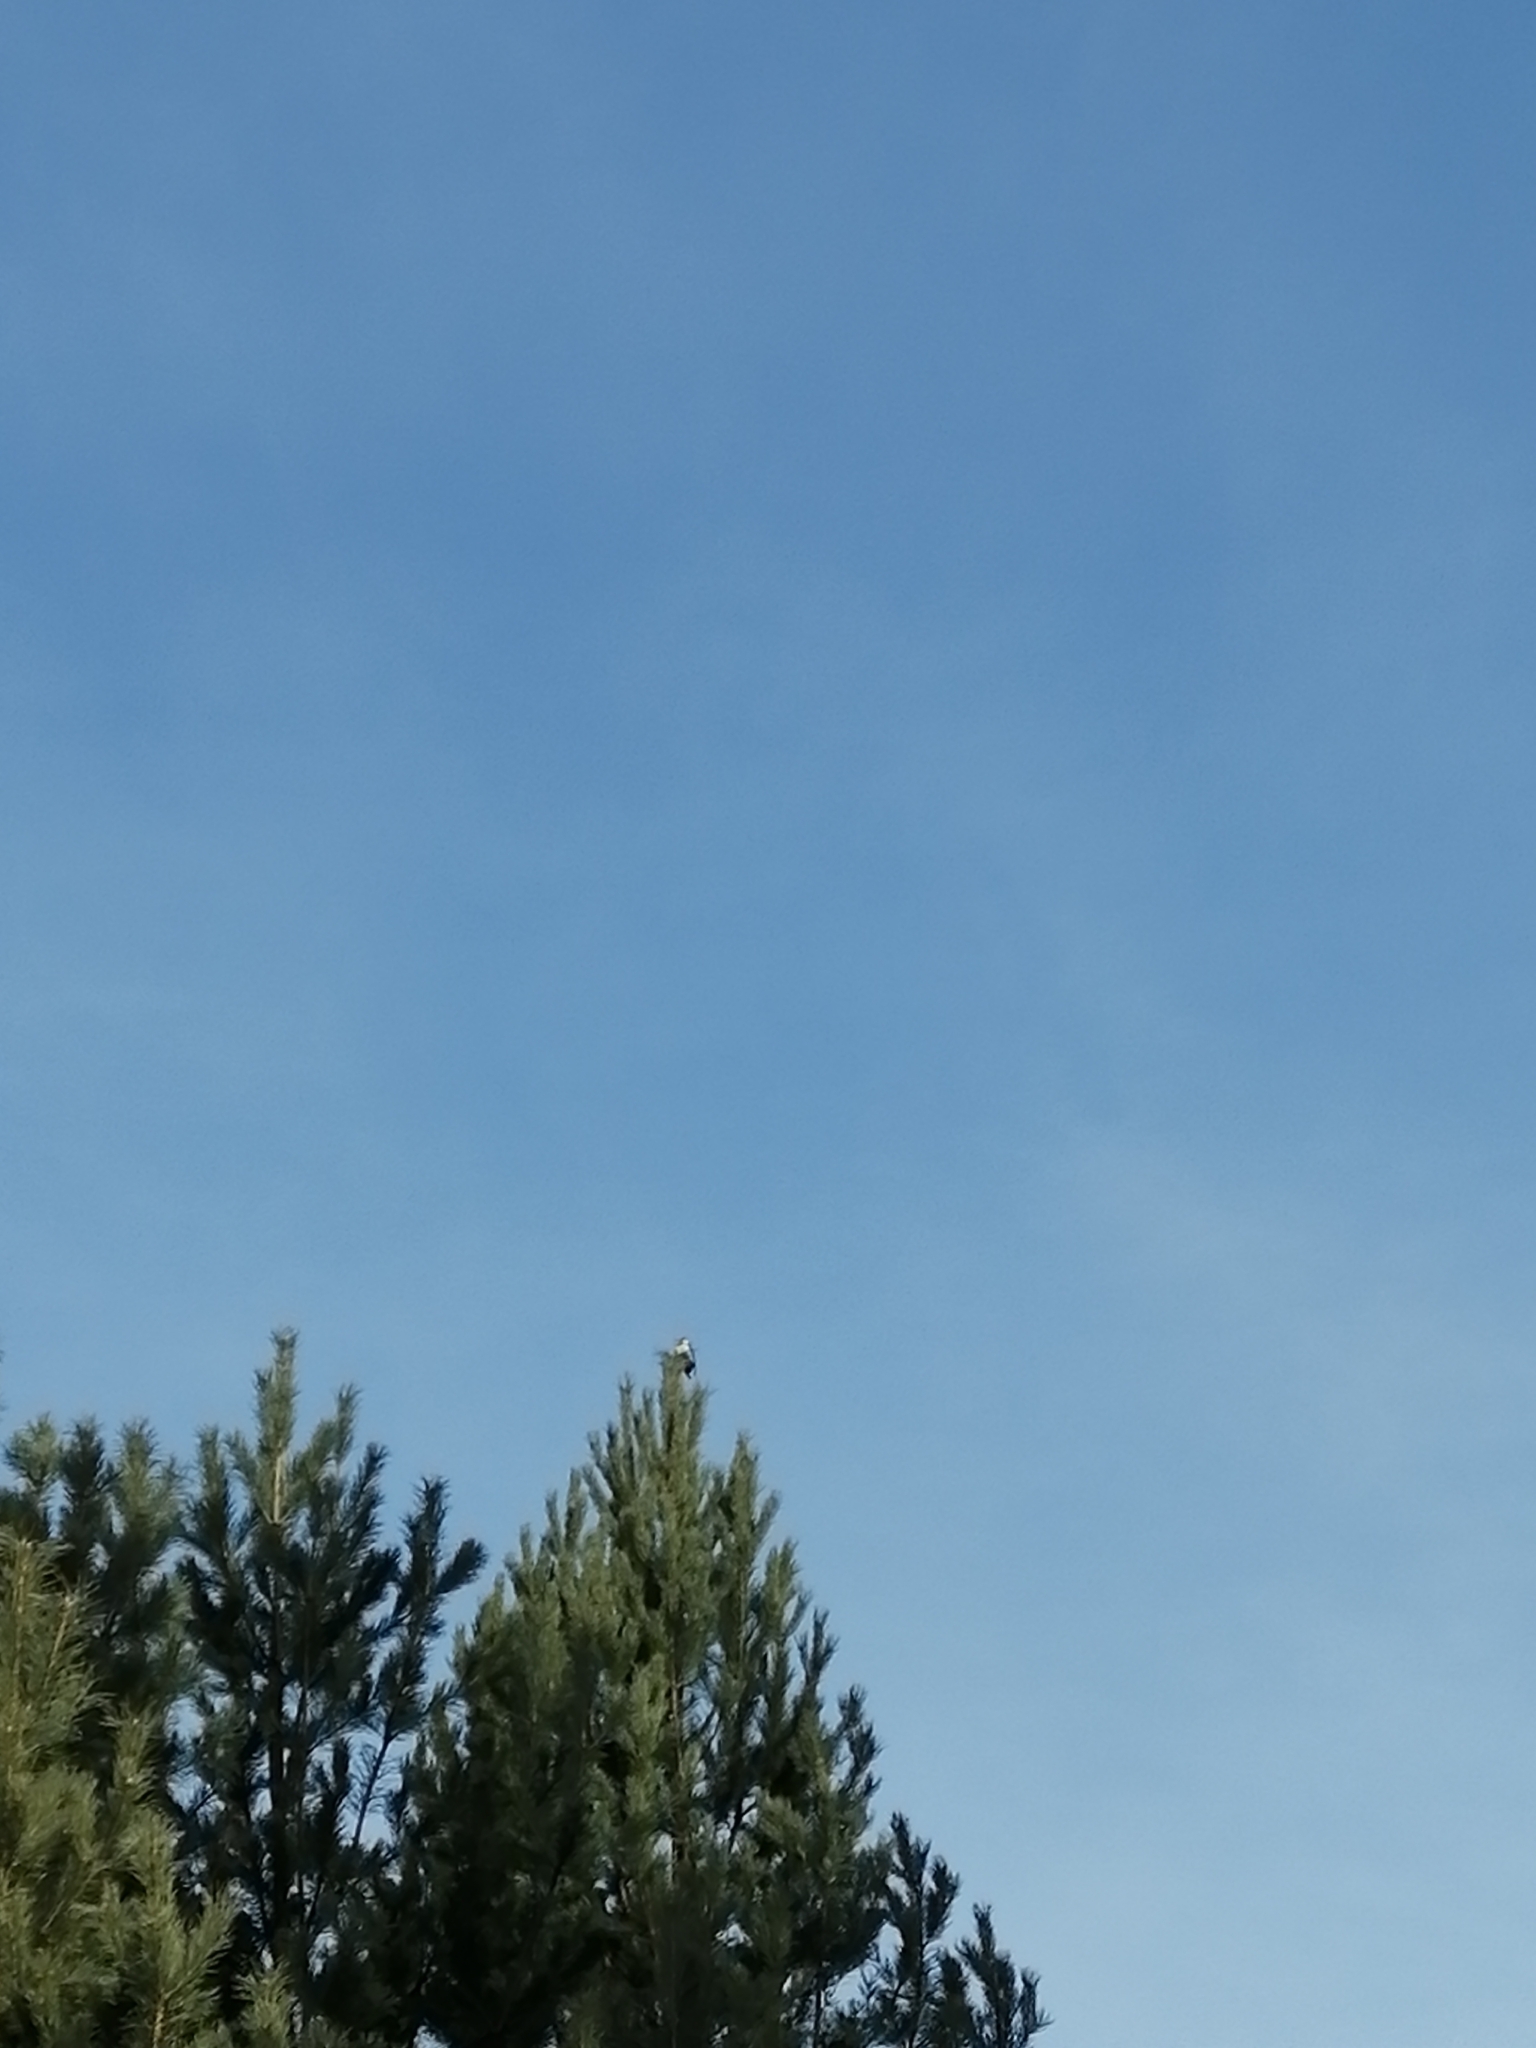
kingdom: Animalia
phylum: Chordata
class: Aves
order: Piciformes
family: Picidae
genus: Dendrocopos
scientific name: Dendrocopos major
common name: Great spotted woodpecker
